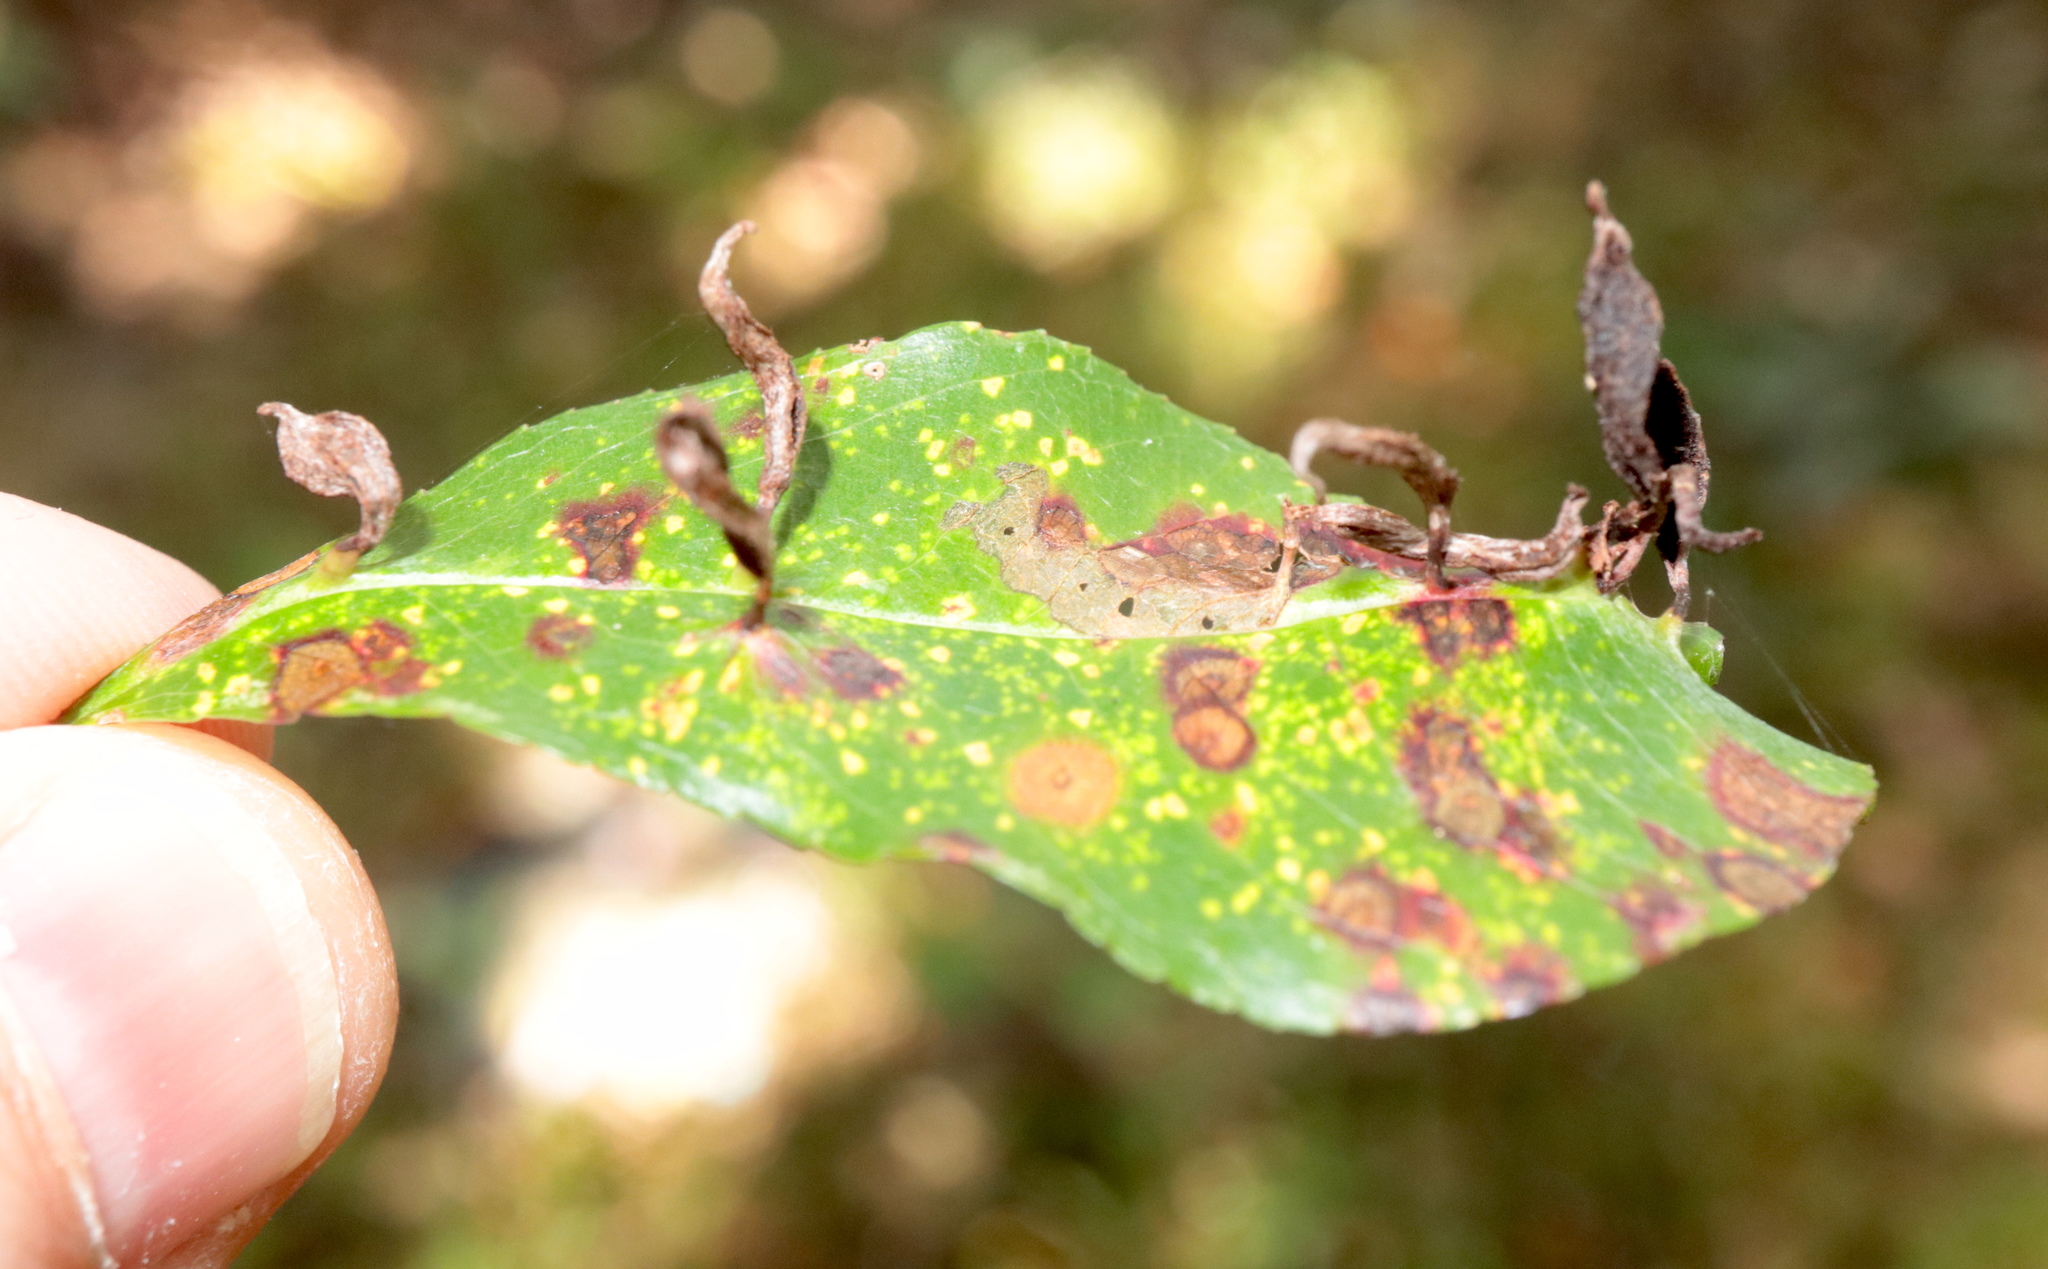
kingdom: Animalia
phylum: Arthropoda
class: Arachnida
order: Trombidiformes
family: Eriophyidae
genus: Eriophyes
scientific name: Eriophyes
